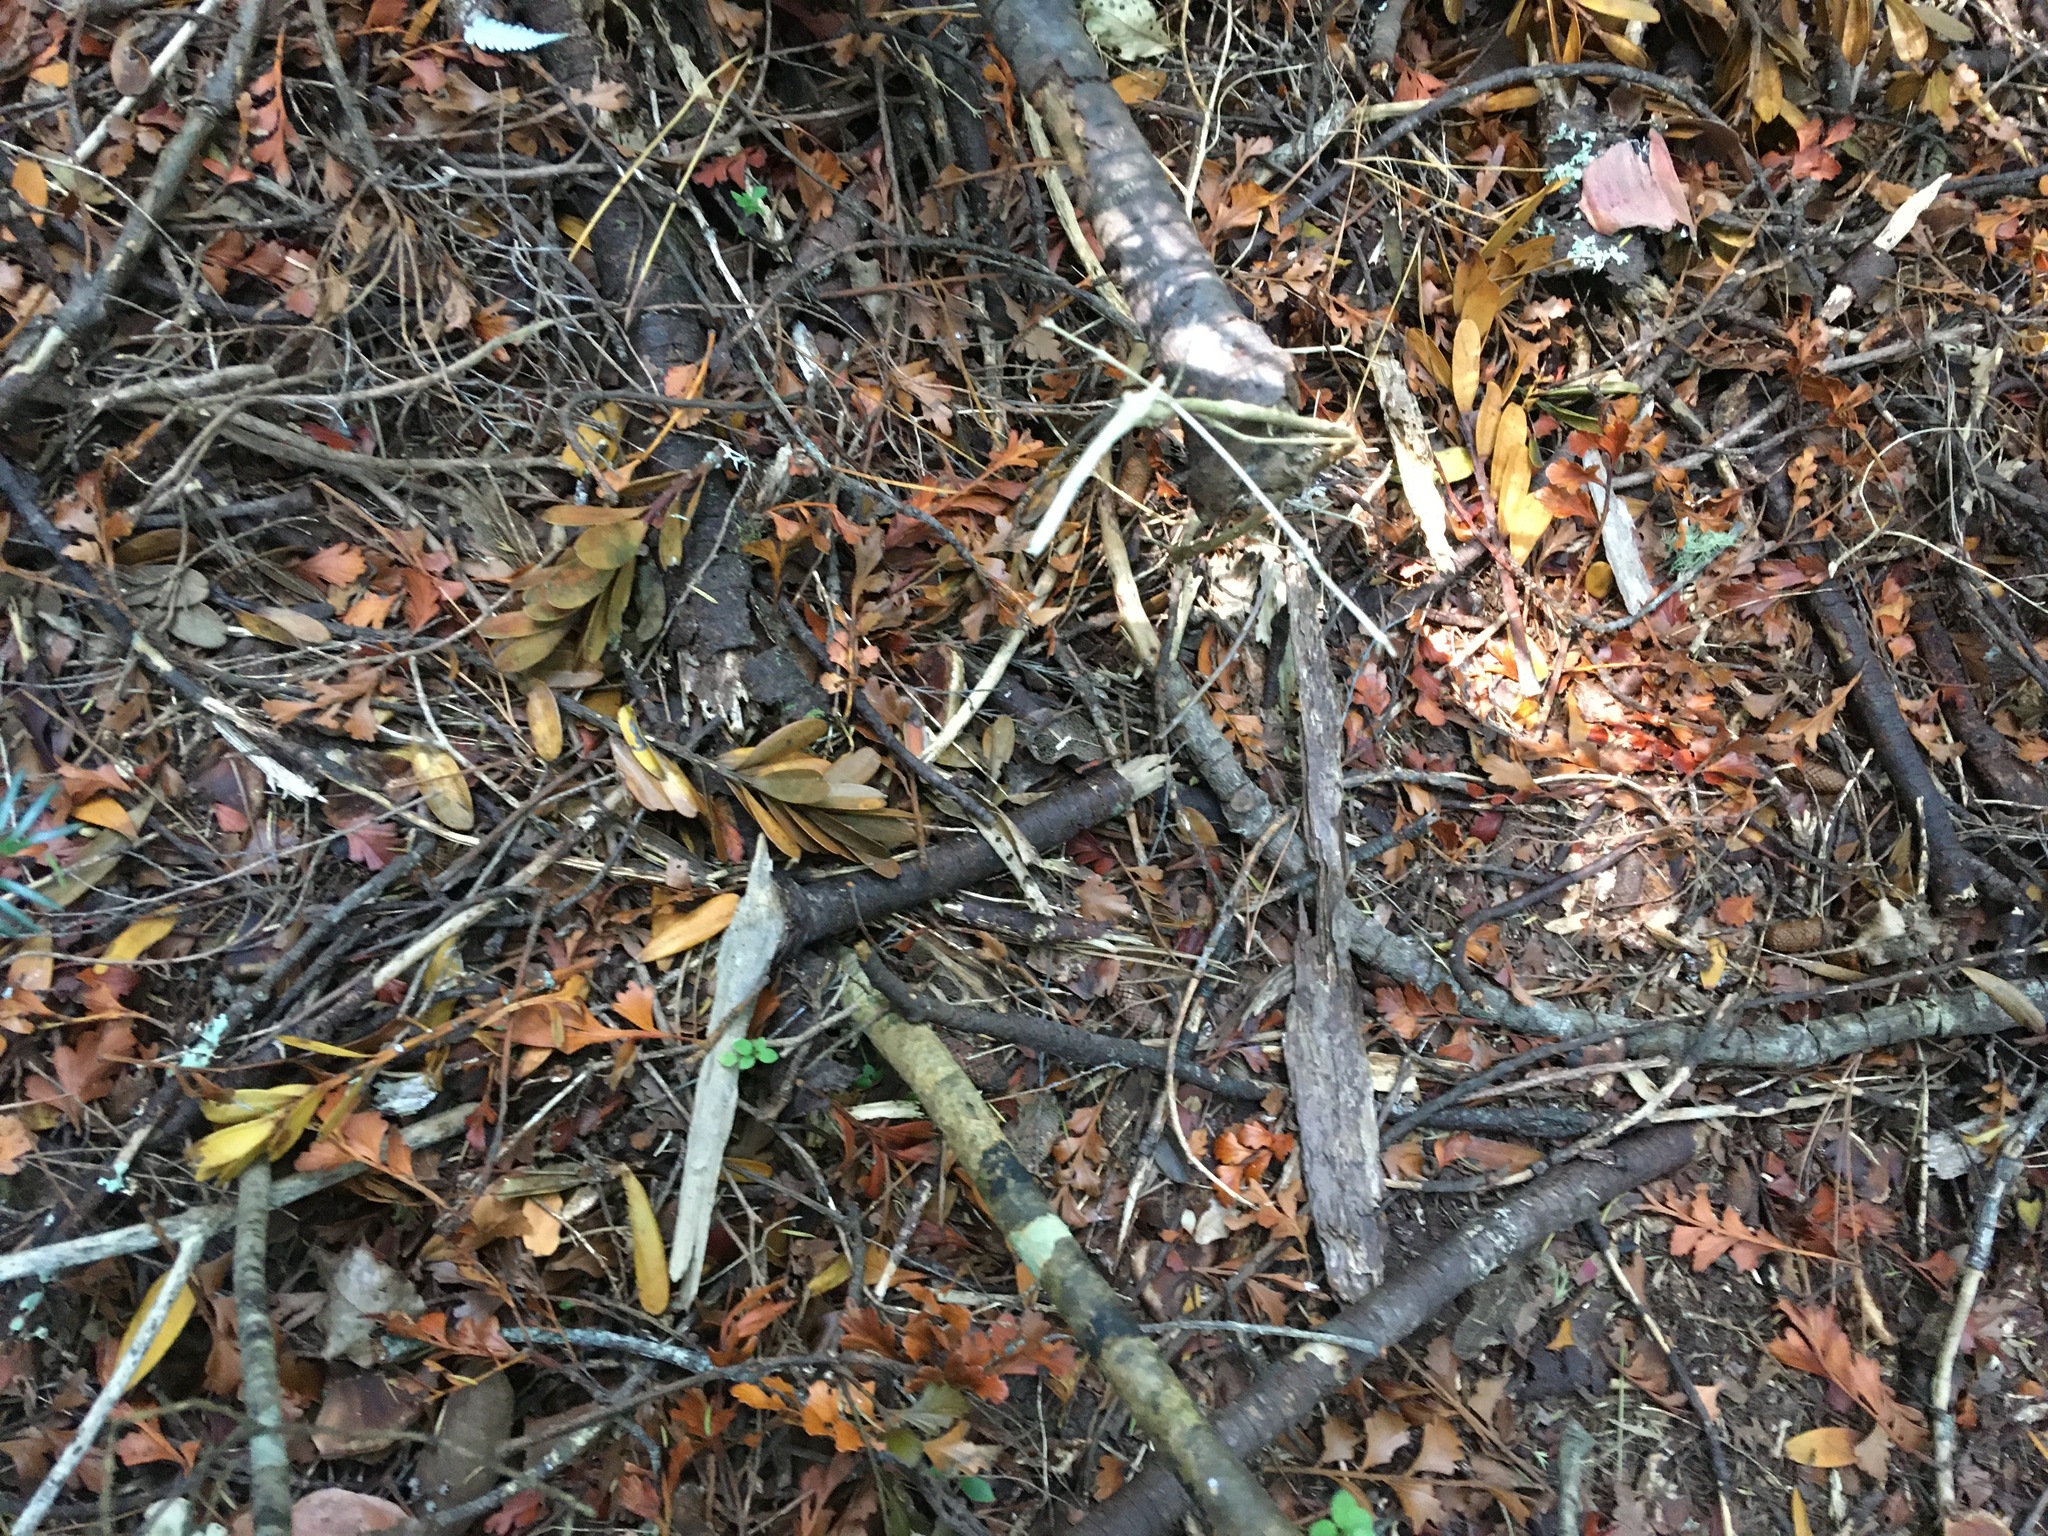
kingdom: Plantae
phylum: Tracheophyta
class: Pinopsida
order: Pinales
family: Araucariaceae
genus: Agathis
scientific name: Agathis australis
